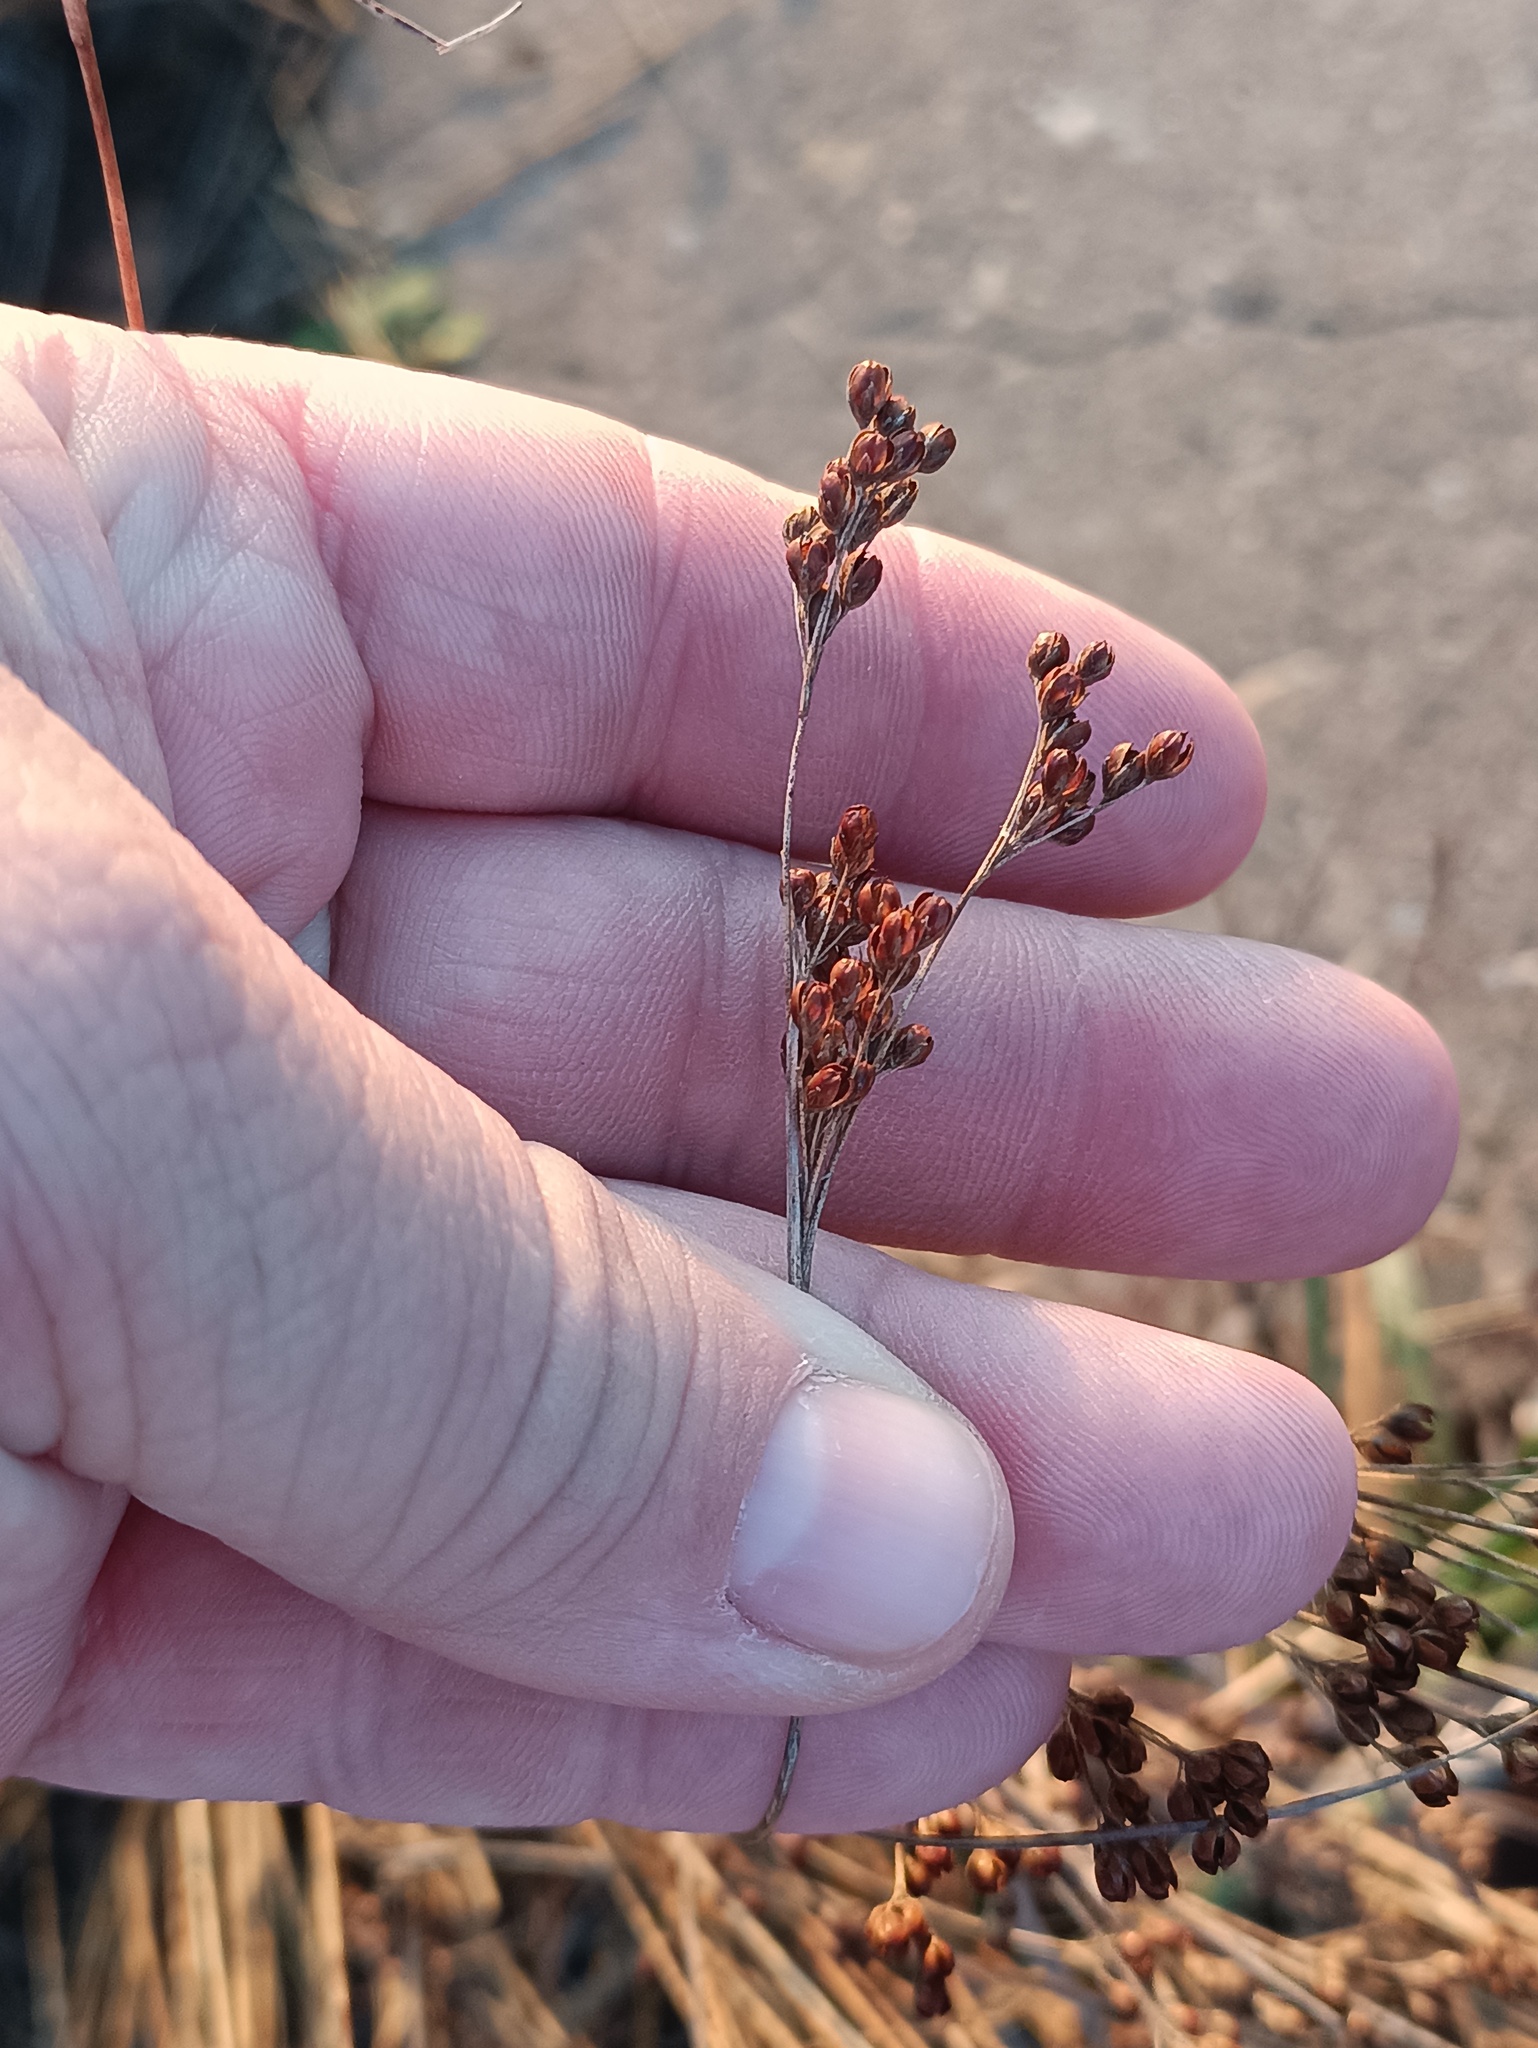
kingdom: Plantae
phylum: Tracheophyta
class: Liliopsida
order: Poales
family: Juncaceae
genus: Juncus
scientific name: Juncus compressus
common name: Round-fruited rush
